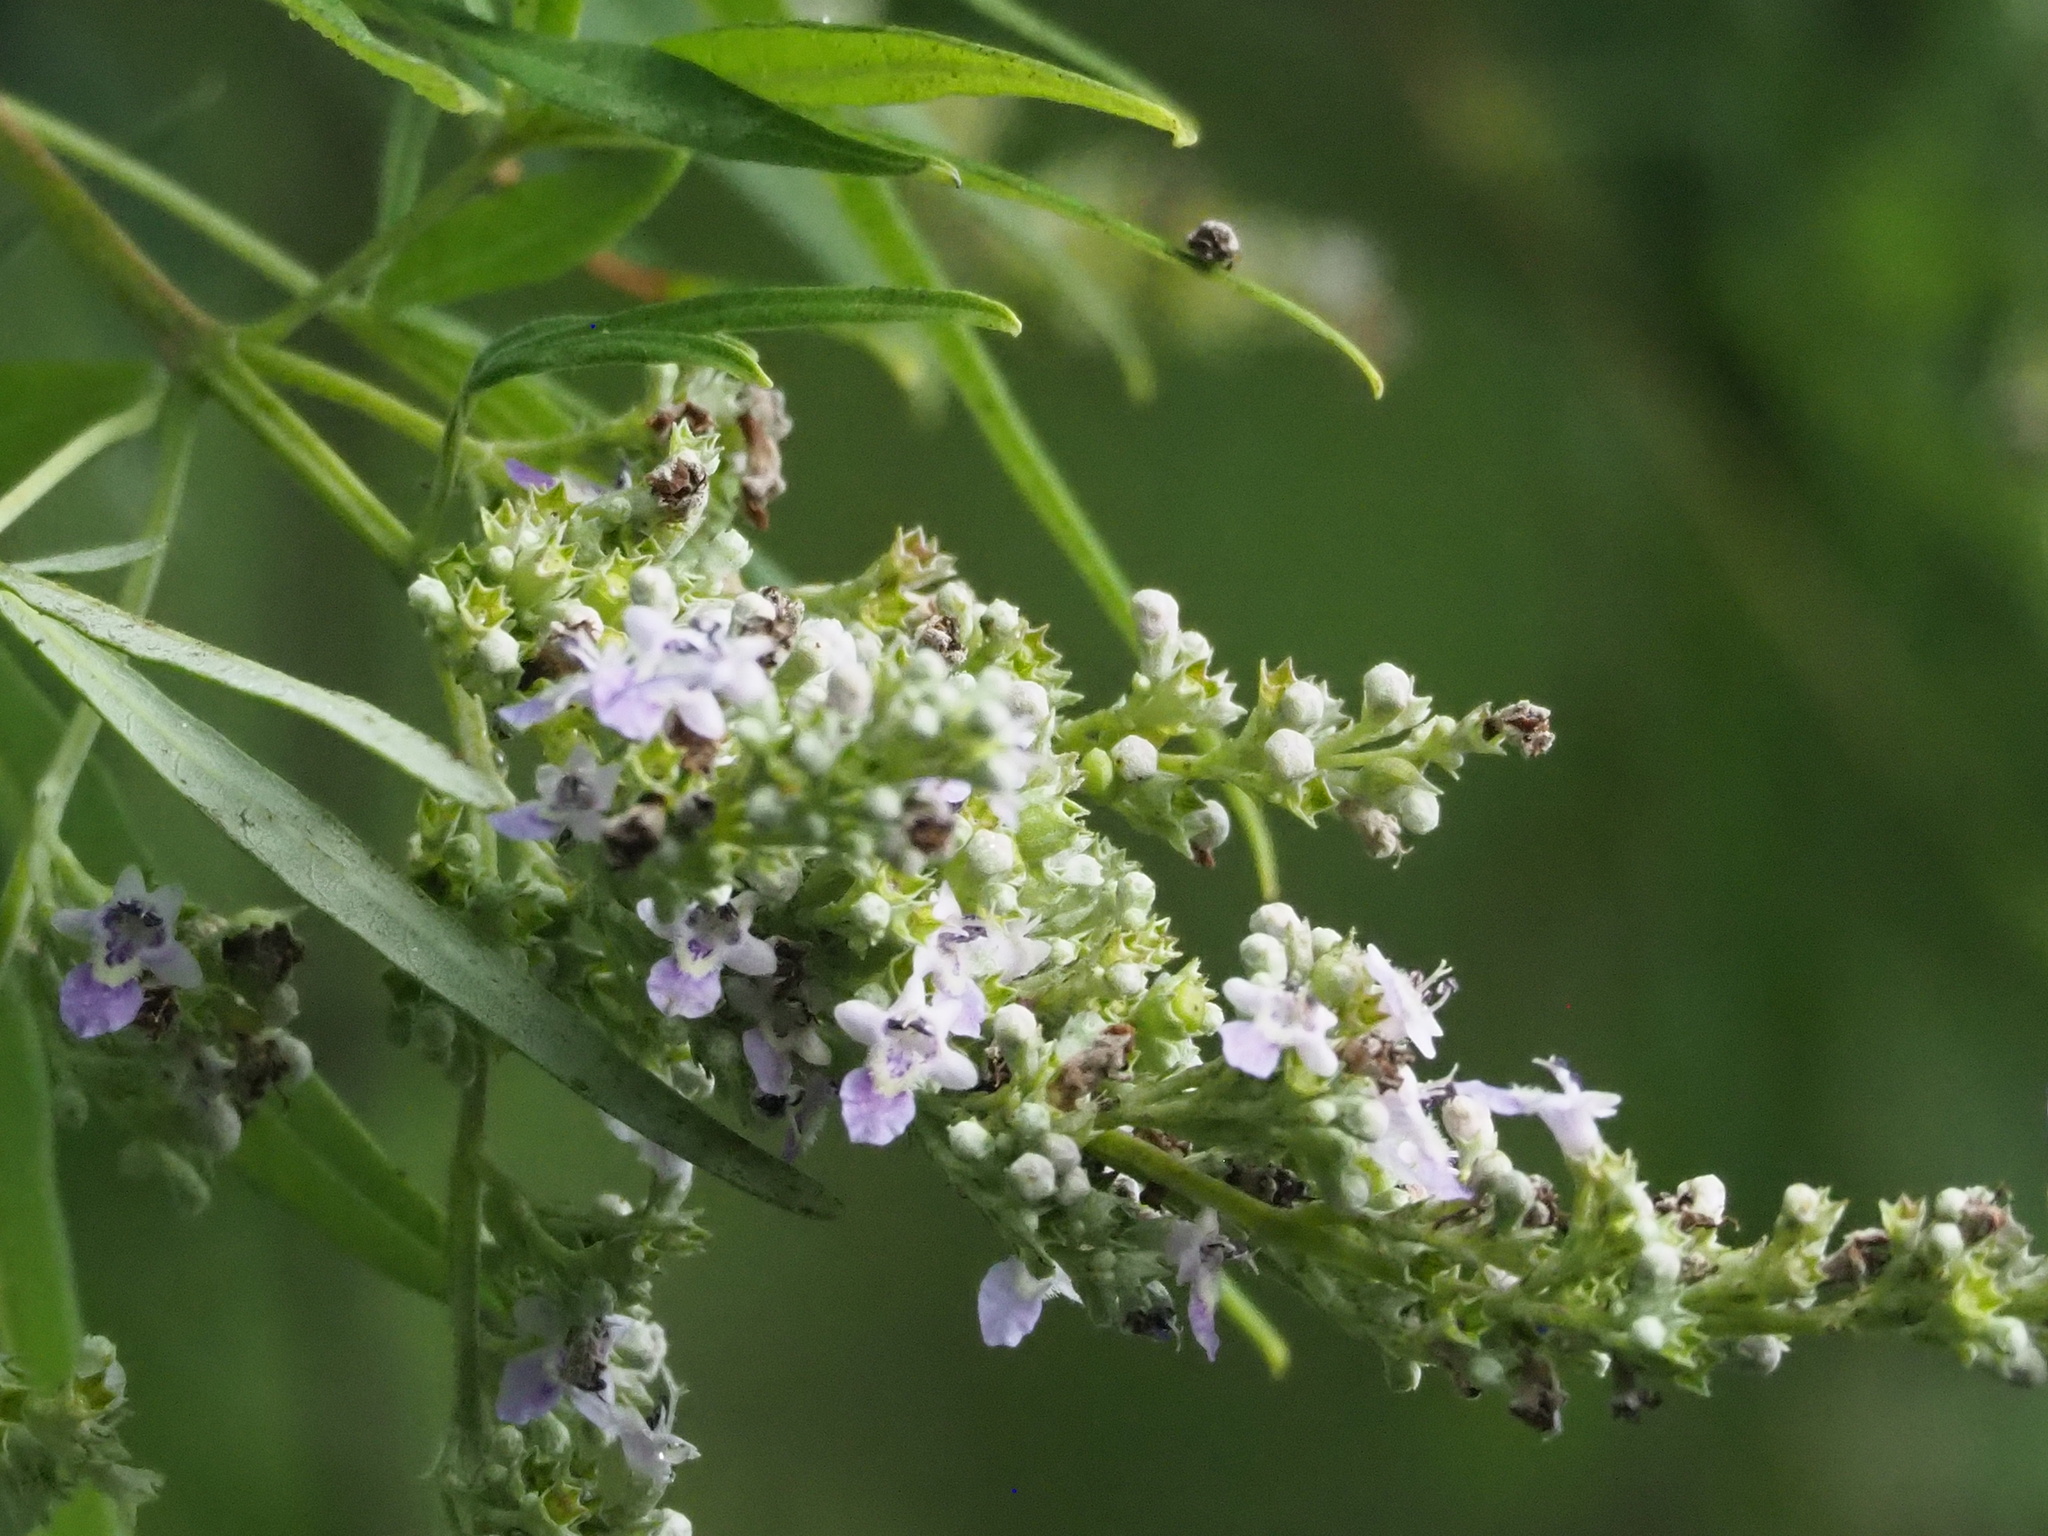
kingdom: Plantae
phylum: Tracheophyta
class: Magnoliopsida
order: Lamiales
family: Lamiaceae
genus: Vitex
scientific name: Vitex negundo
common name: Chinese chastetree
